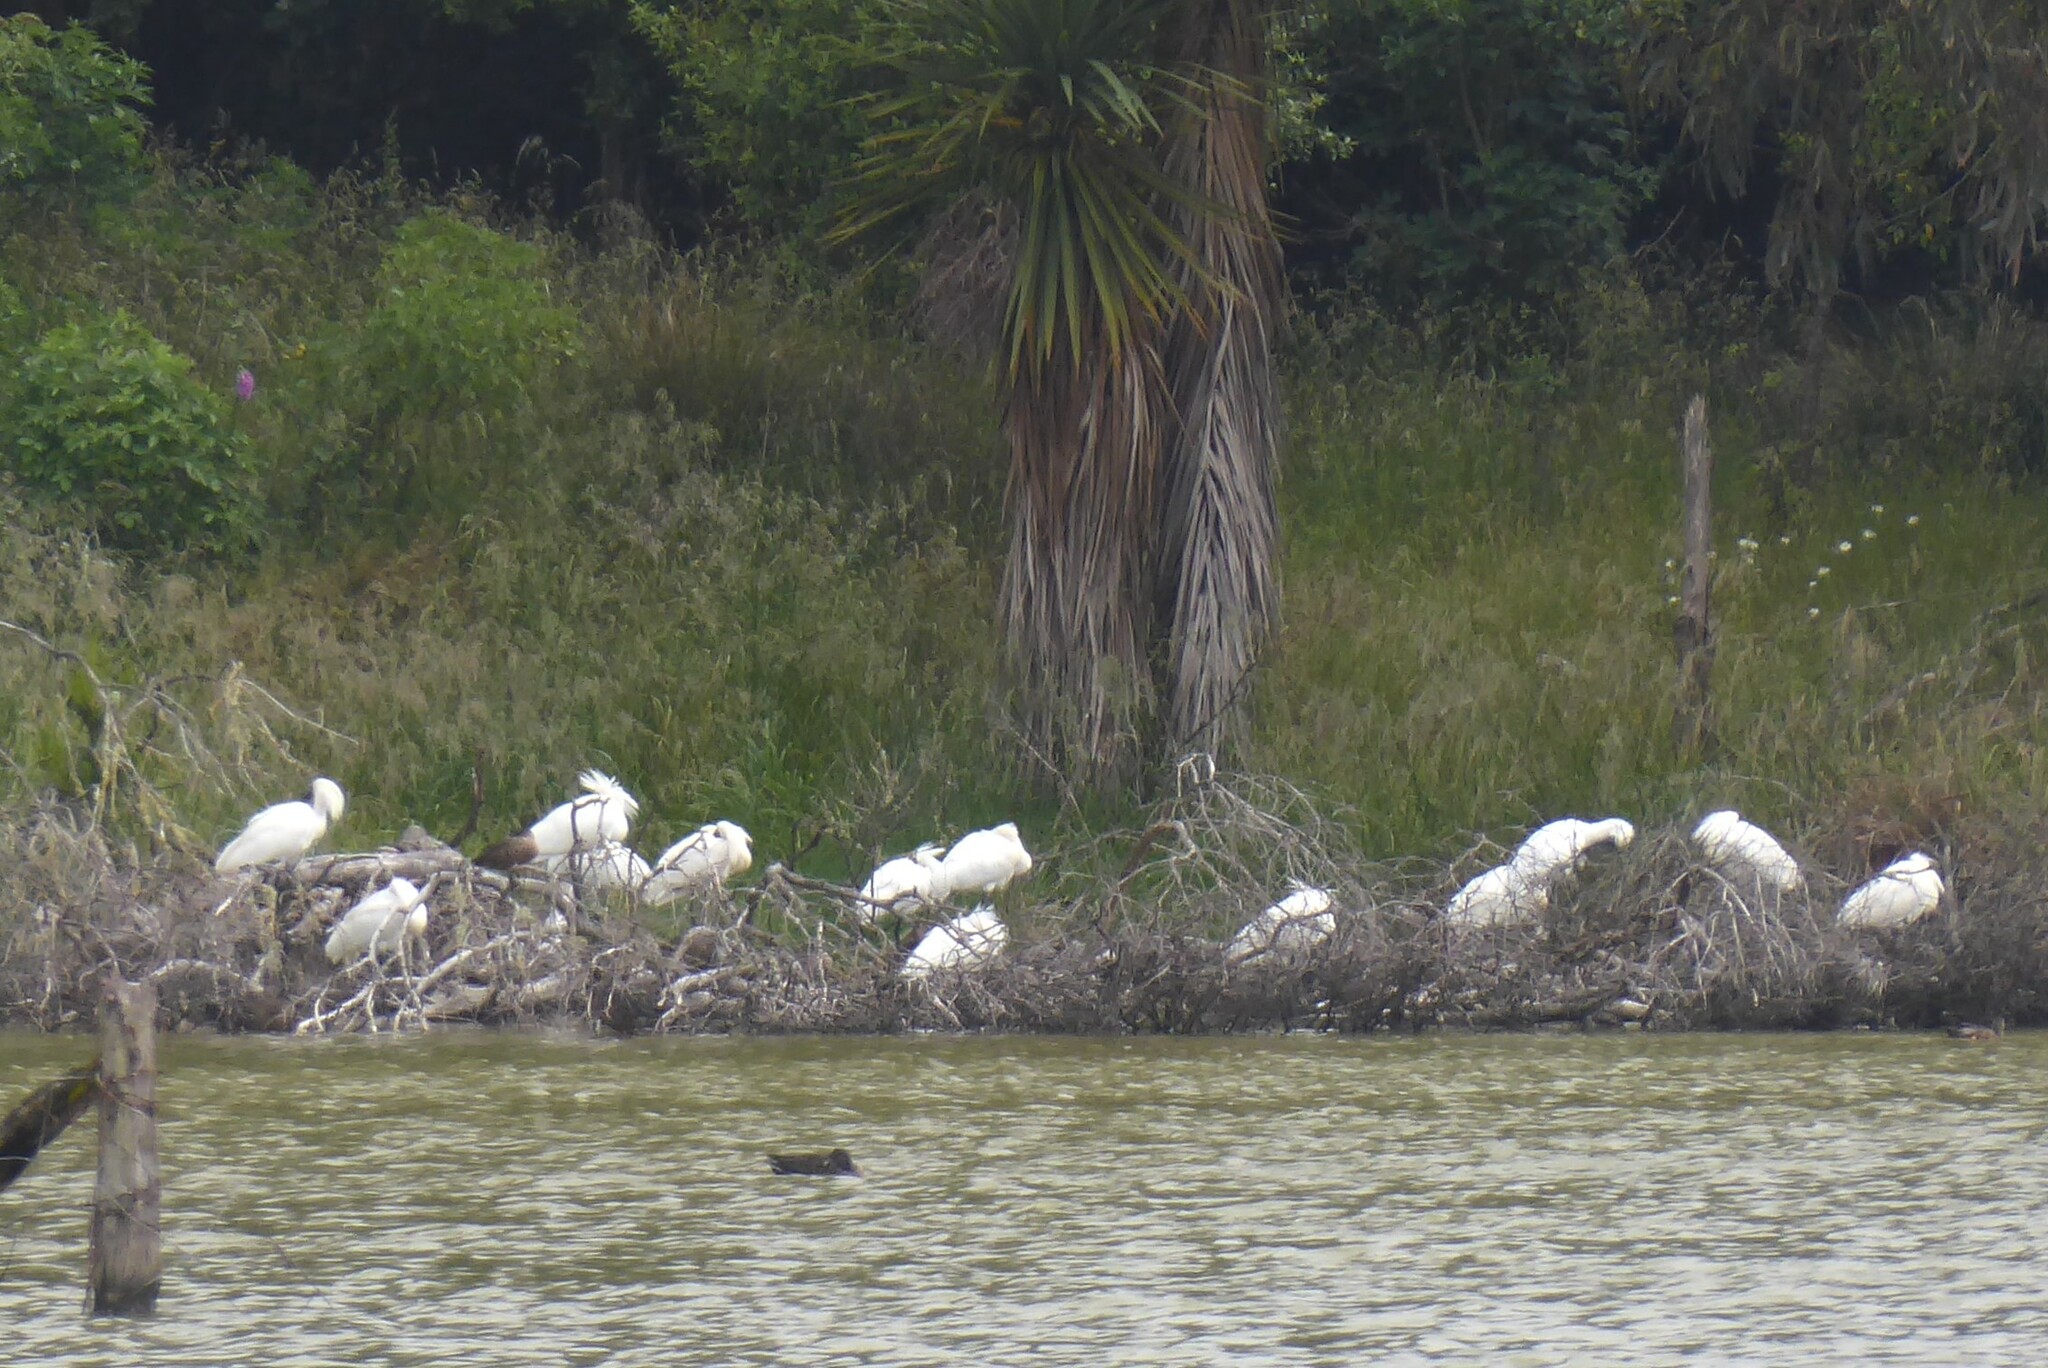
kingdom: Animalia
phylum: Chordata
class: Aves
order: Pelecaniformes
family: Threskiornithidae
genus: Platalea
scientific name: Platalea regia
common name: Royal spoonbill
